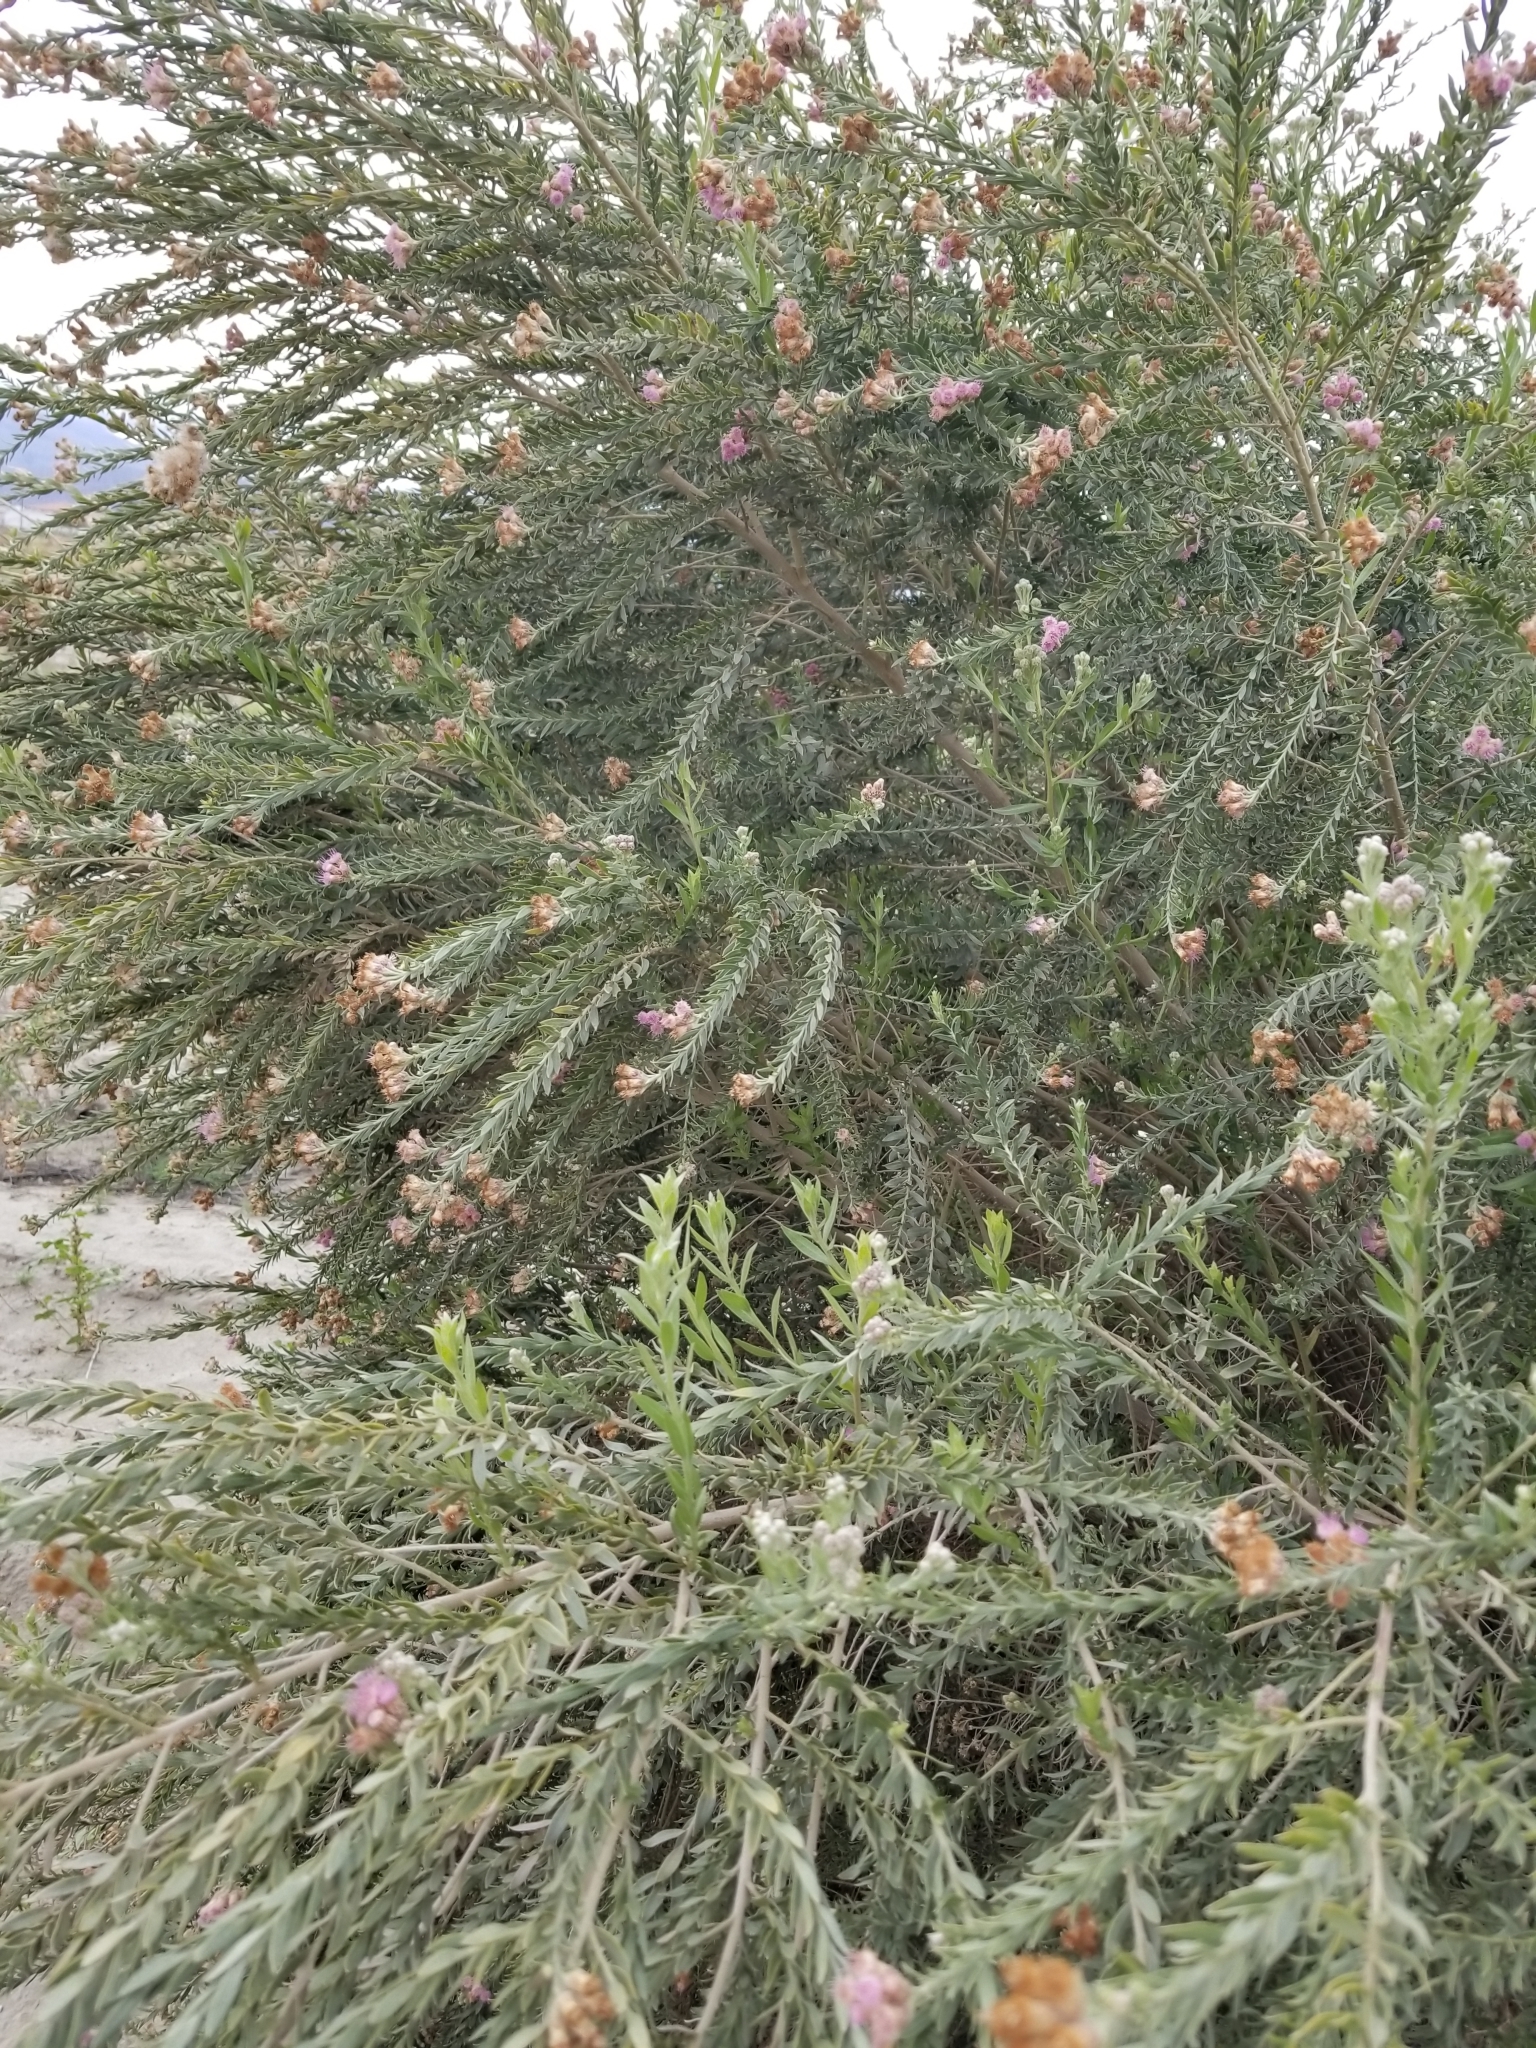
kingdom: Plantae
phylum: Tracheophyta
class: Magnoliopsida
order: Asterales
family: Asteraceae
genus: Pluchea
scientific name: Pluchea sericea
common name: Arrow-weed
